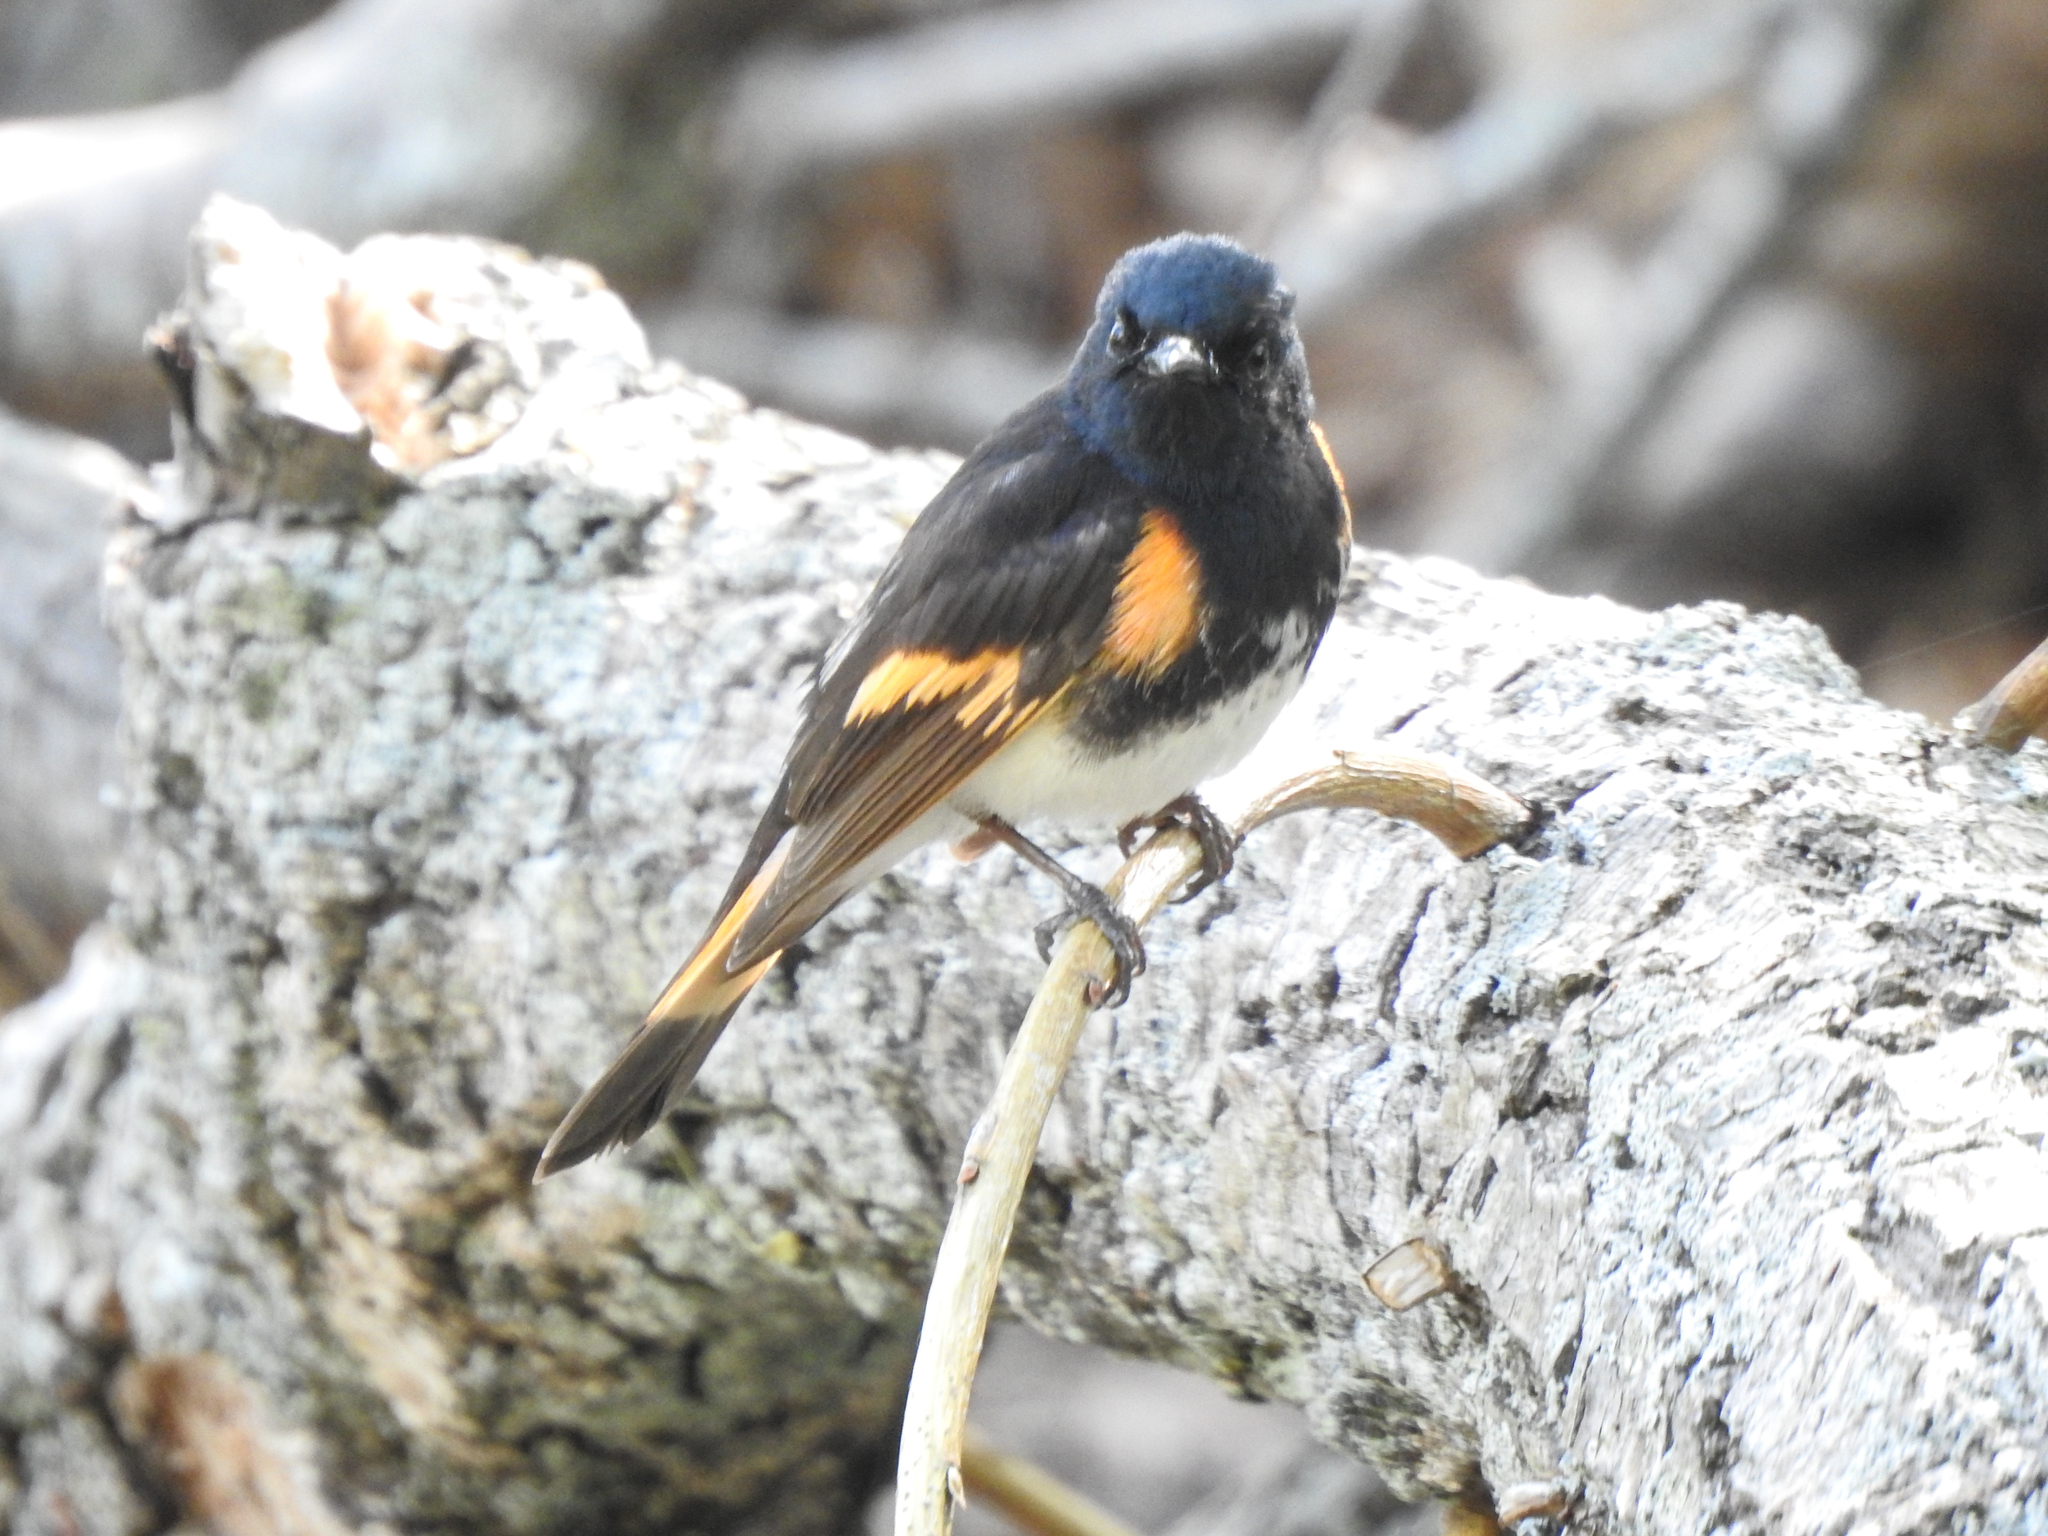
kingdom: Animalia
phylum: Chordata
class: Aves
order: Passeriformes
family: Parulidae
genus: Setophaga
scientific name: Setophaga ruticilla
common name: American redstart
